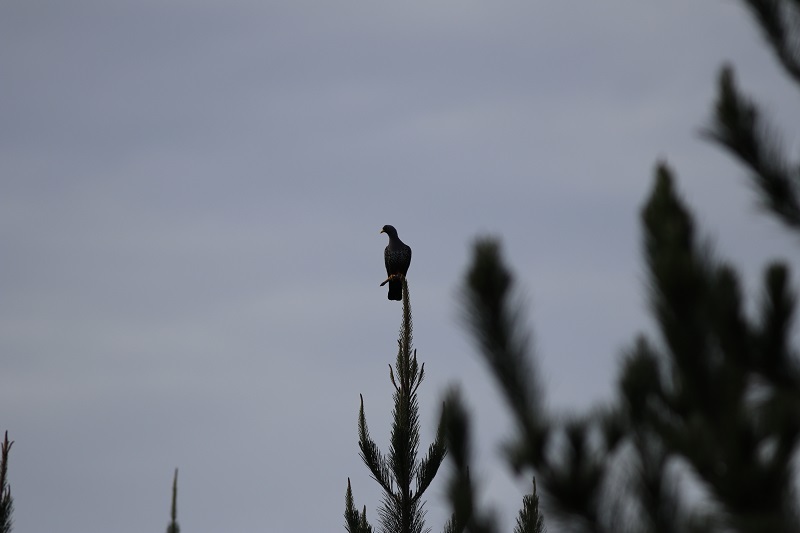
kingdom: Animalia
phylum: Chordata
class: Aves
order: Columbiformes
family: Columbidae
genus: Columba
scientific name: Columba arquatrix
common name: African olive pigeon
